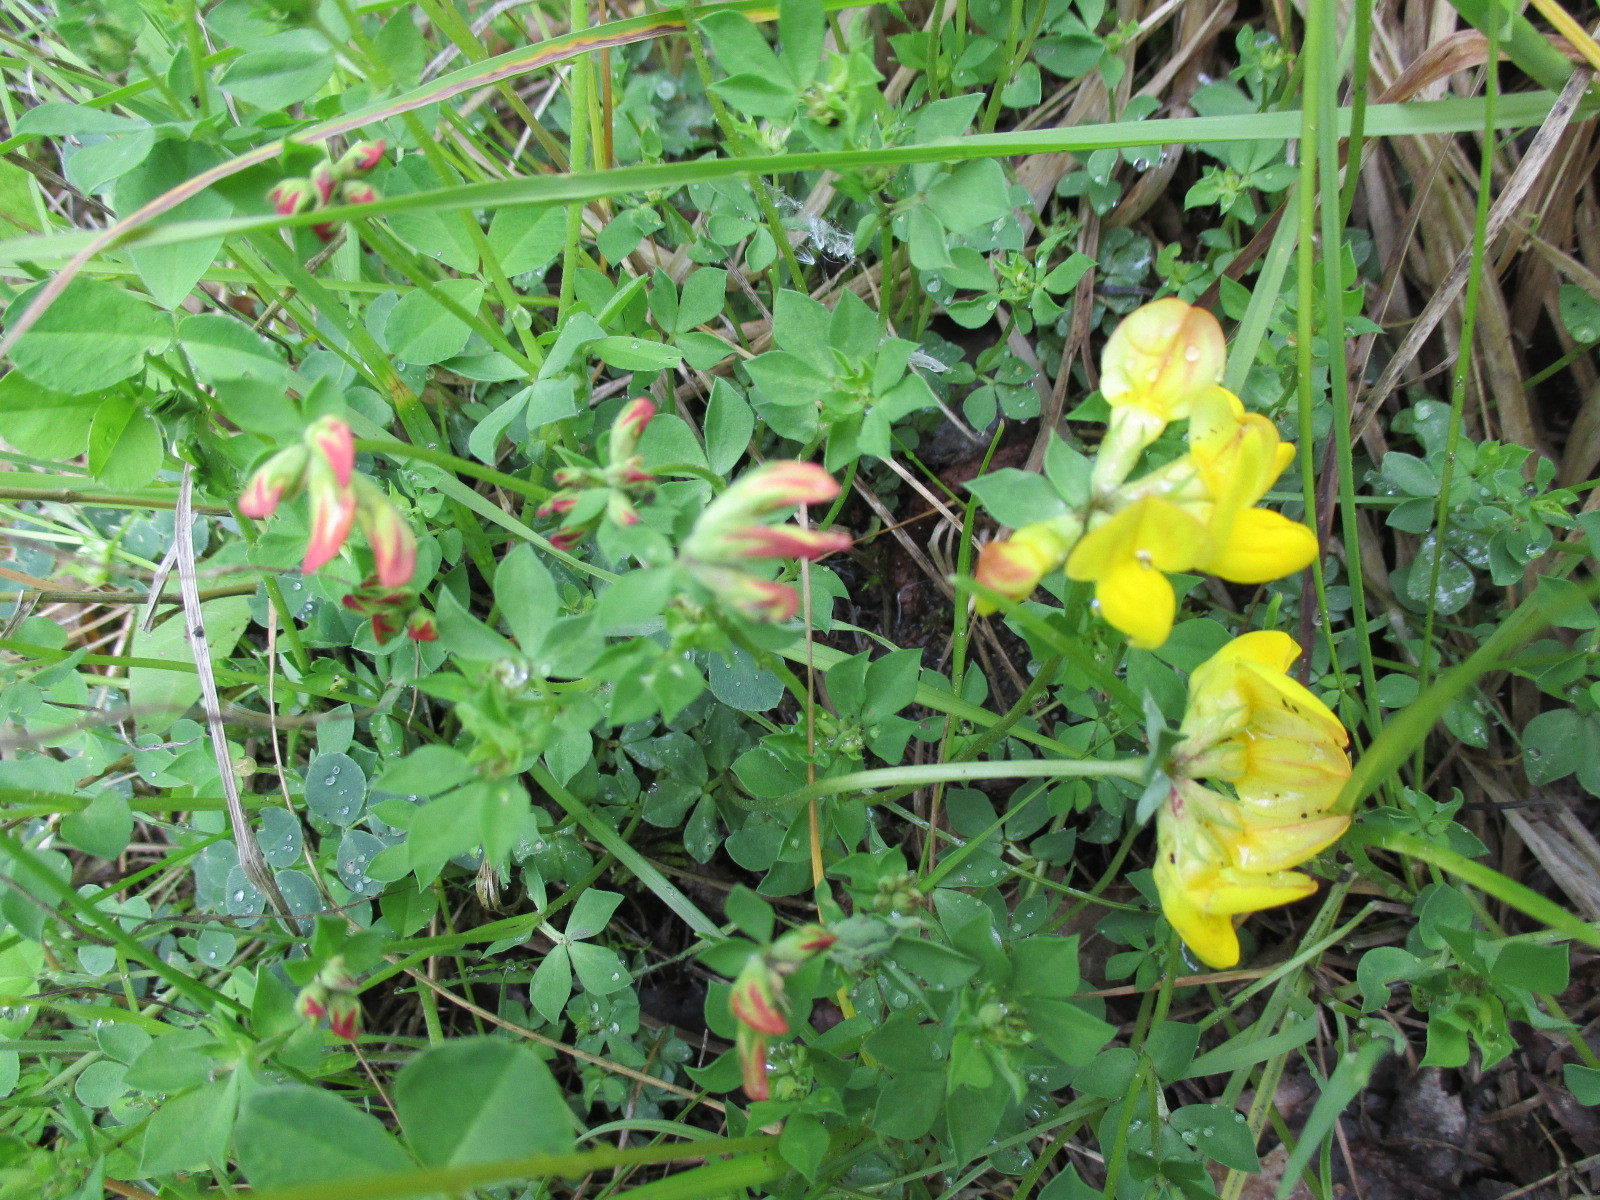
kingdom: Plantae
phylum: Tracheophyta
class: Magnoliopsida
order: Fabales
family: Fabaceae
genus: Lotus
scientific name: Lotus corniculatus
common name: Common bird's-foot-trefoil
